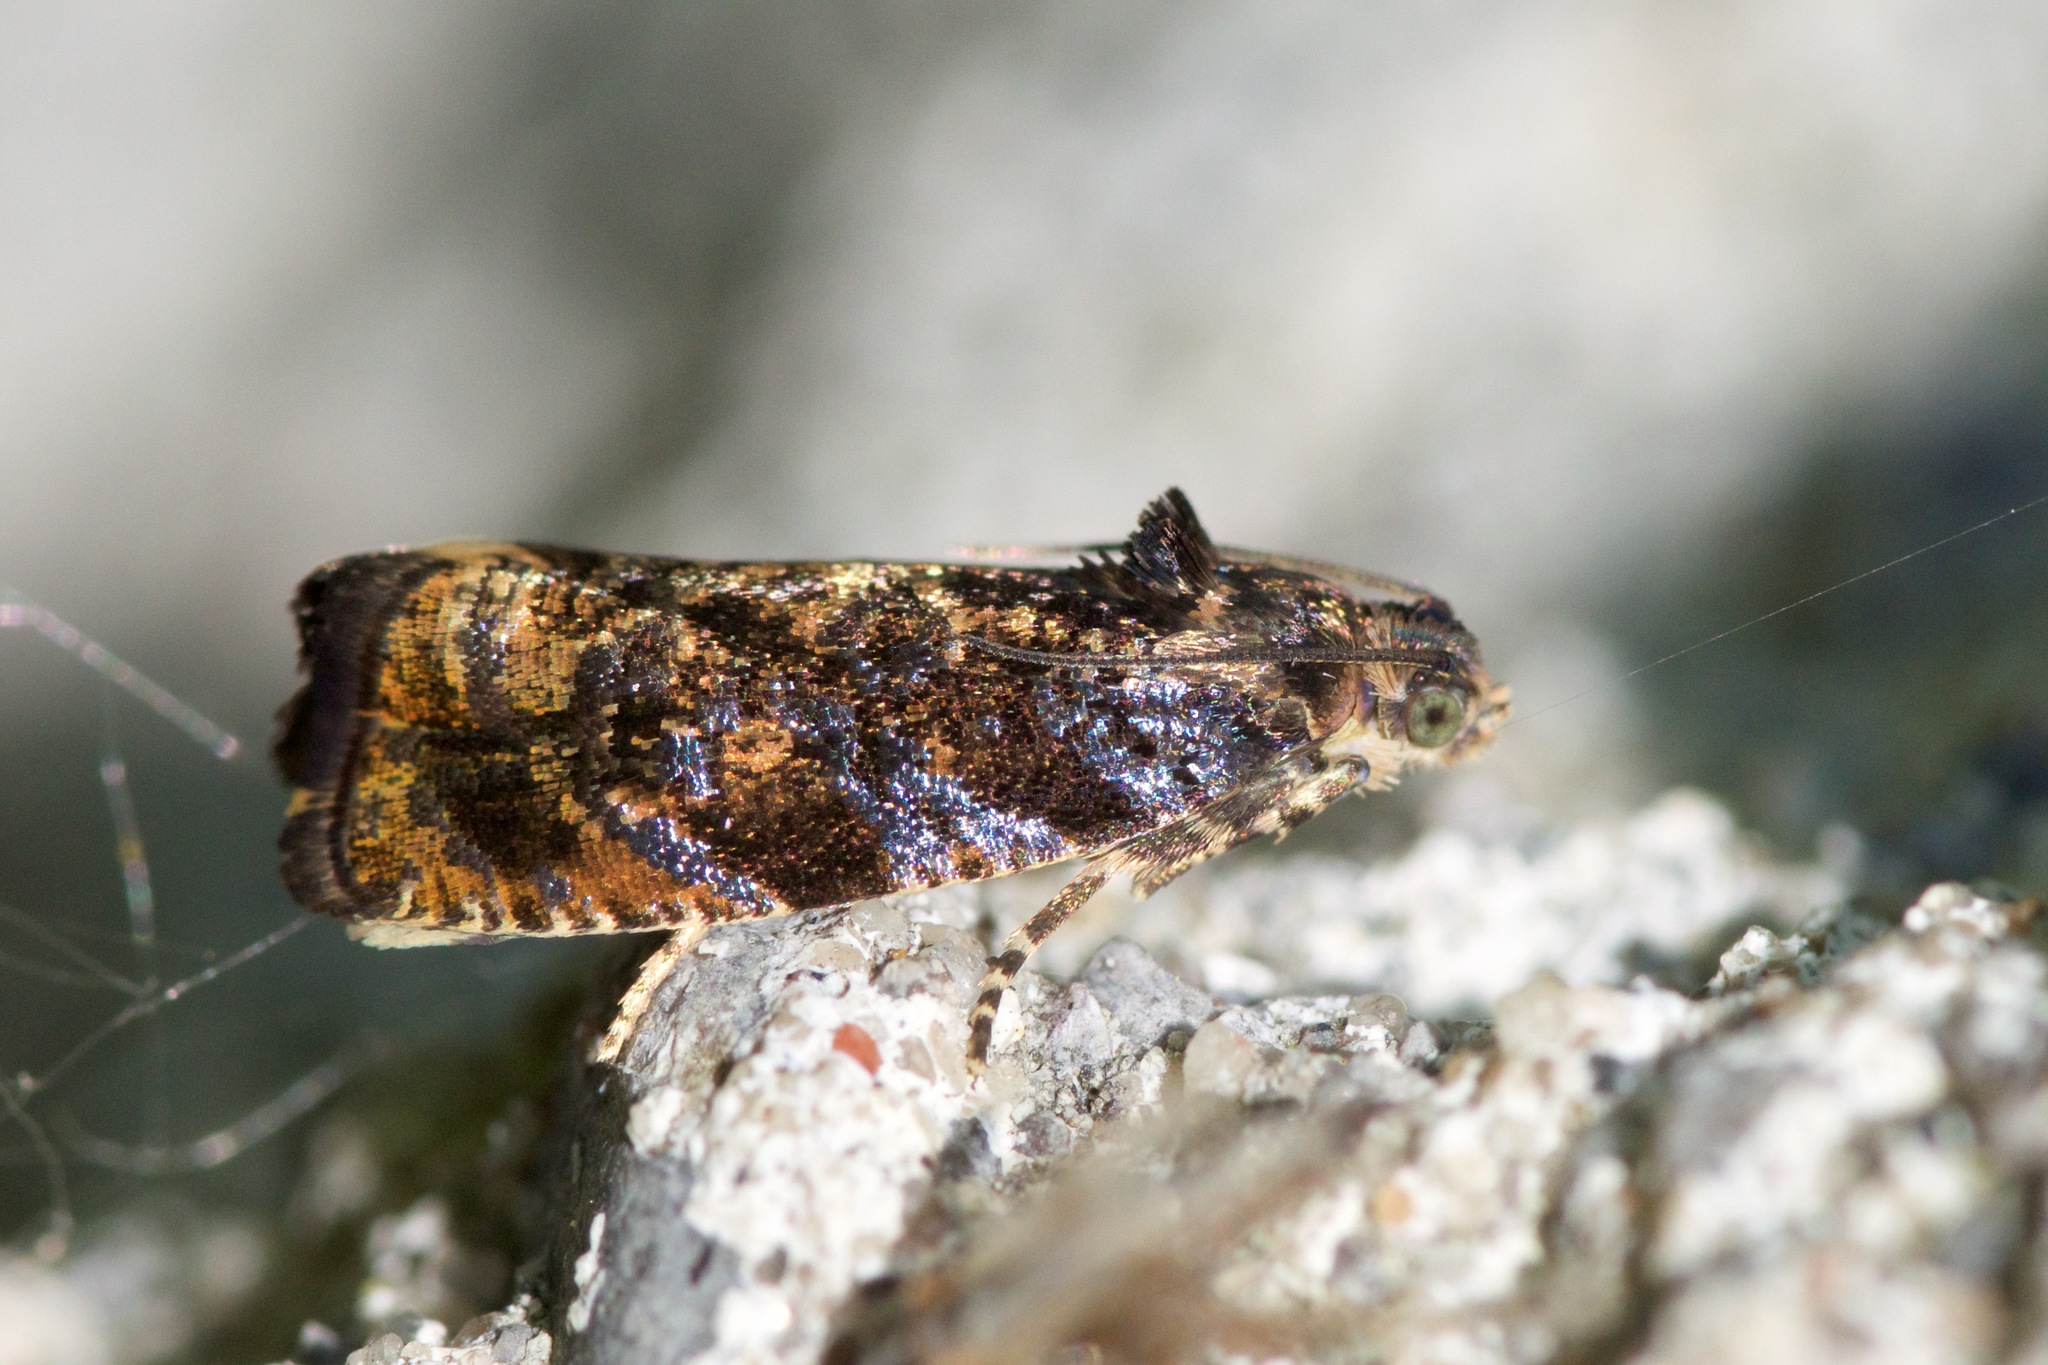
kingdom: Animalia
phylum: Arthropoda
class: Insecta
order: Lepidoptera
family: Tortricidae
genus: Pristerognatha
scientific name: Pristerognatha agilana
